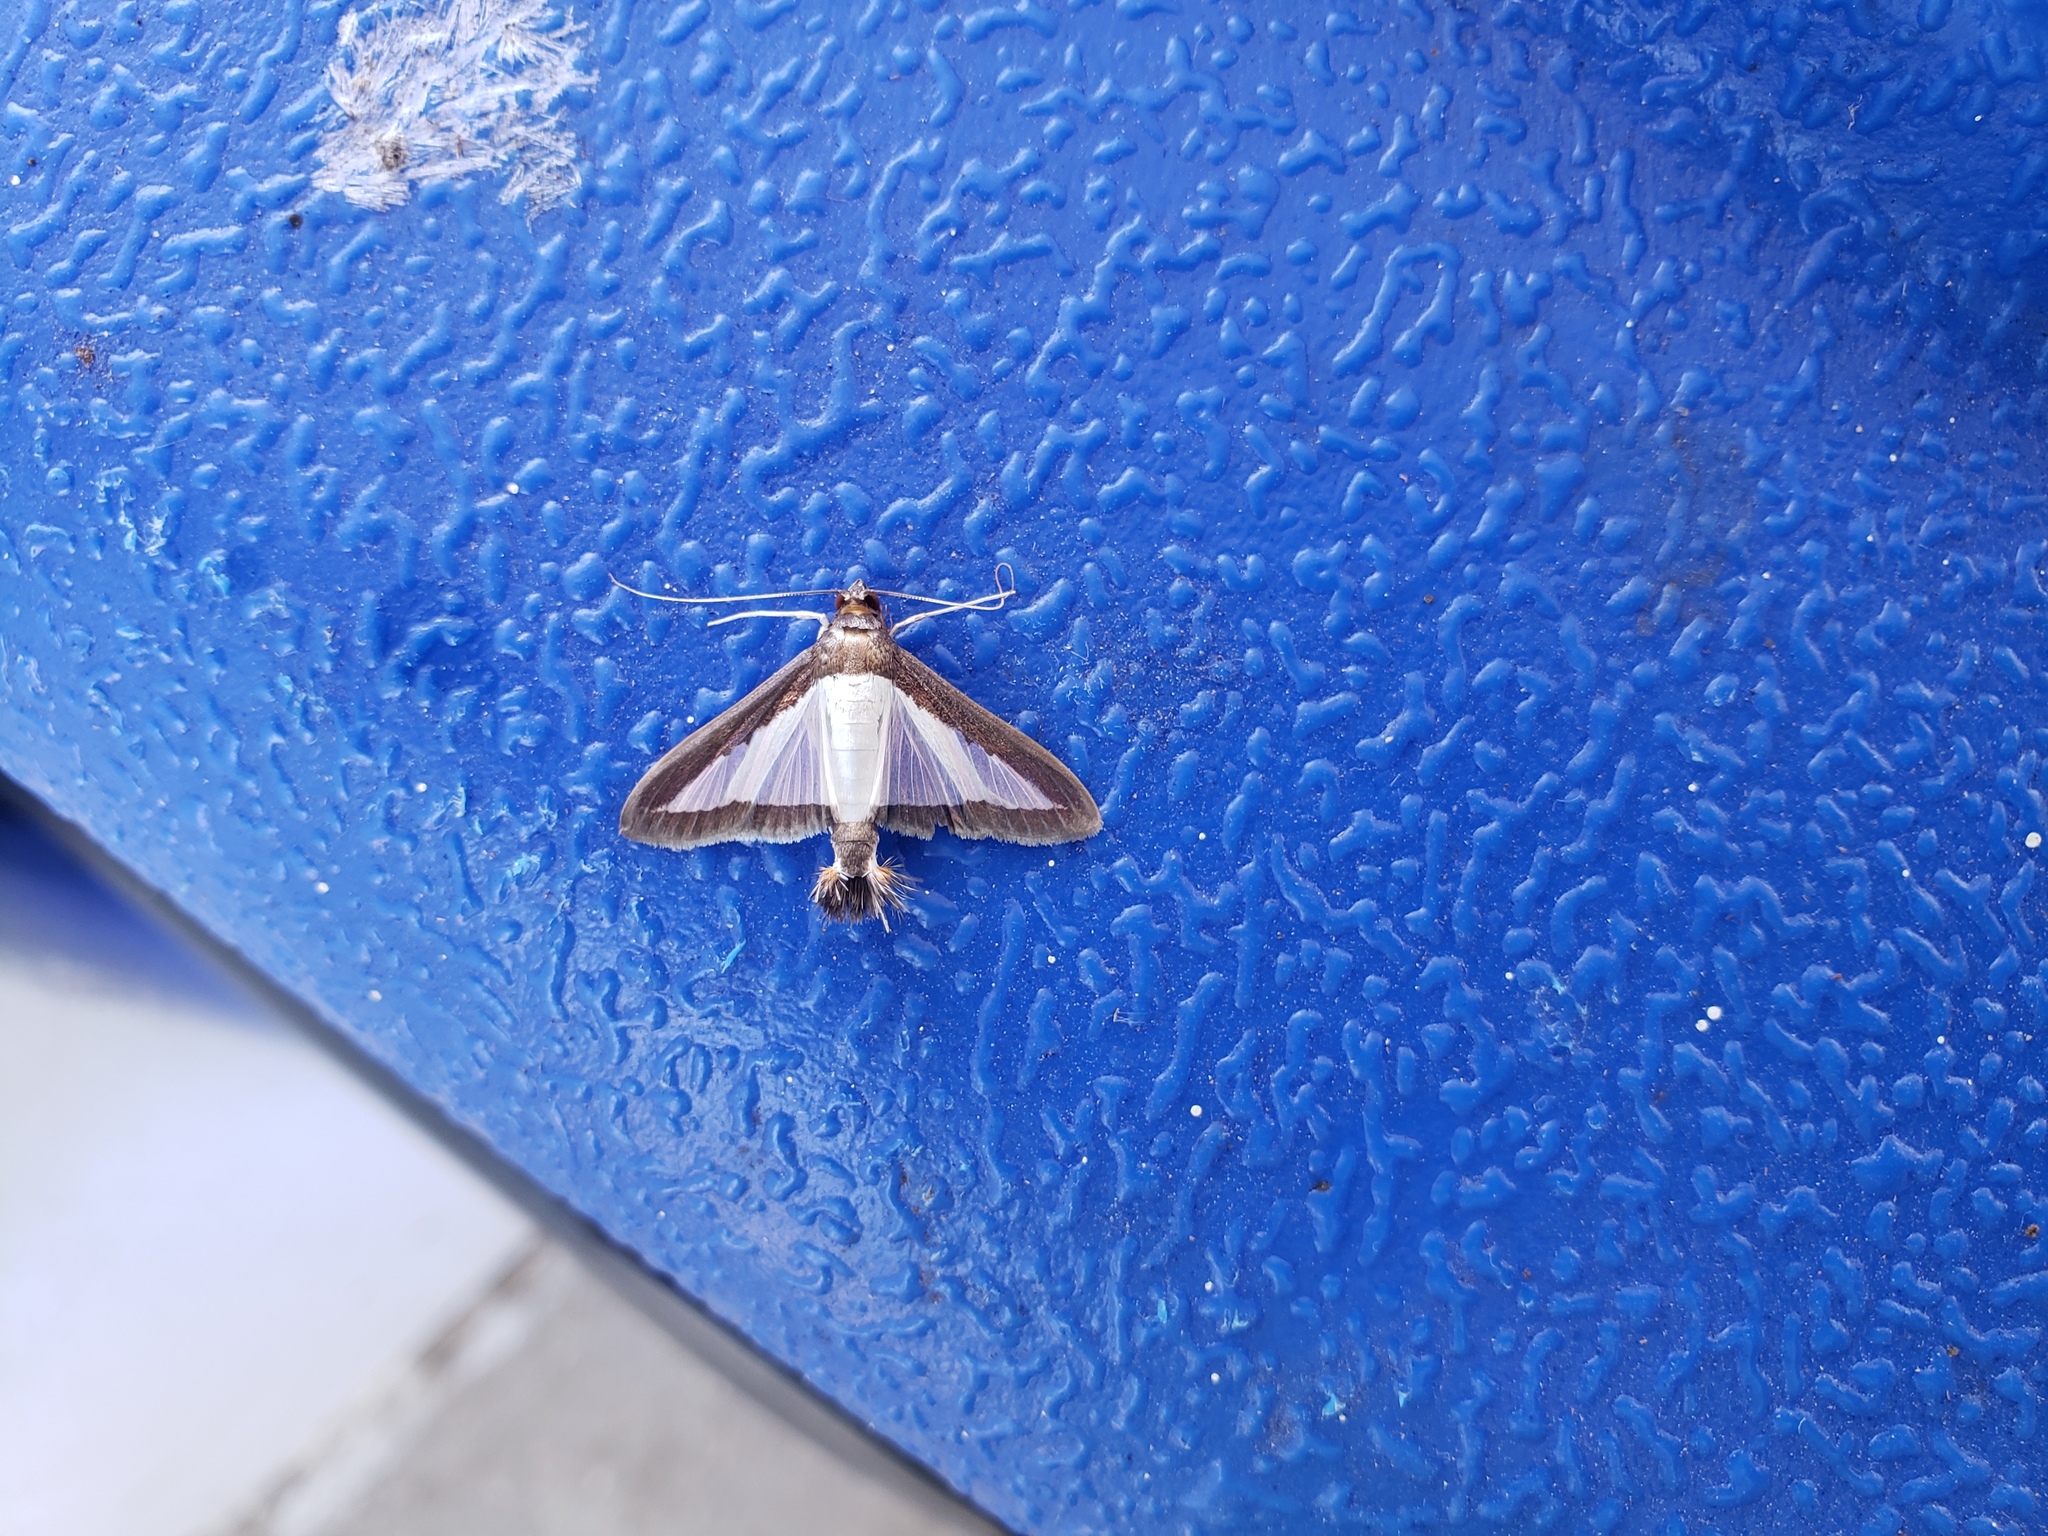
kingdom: Animalia
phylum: Arthropoda
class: Insecta
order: Lepidoptera
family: Crambidae
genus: Diaphania
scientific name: Diaphania hyalinata
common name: Melonworm
